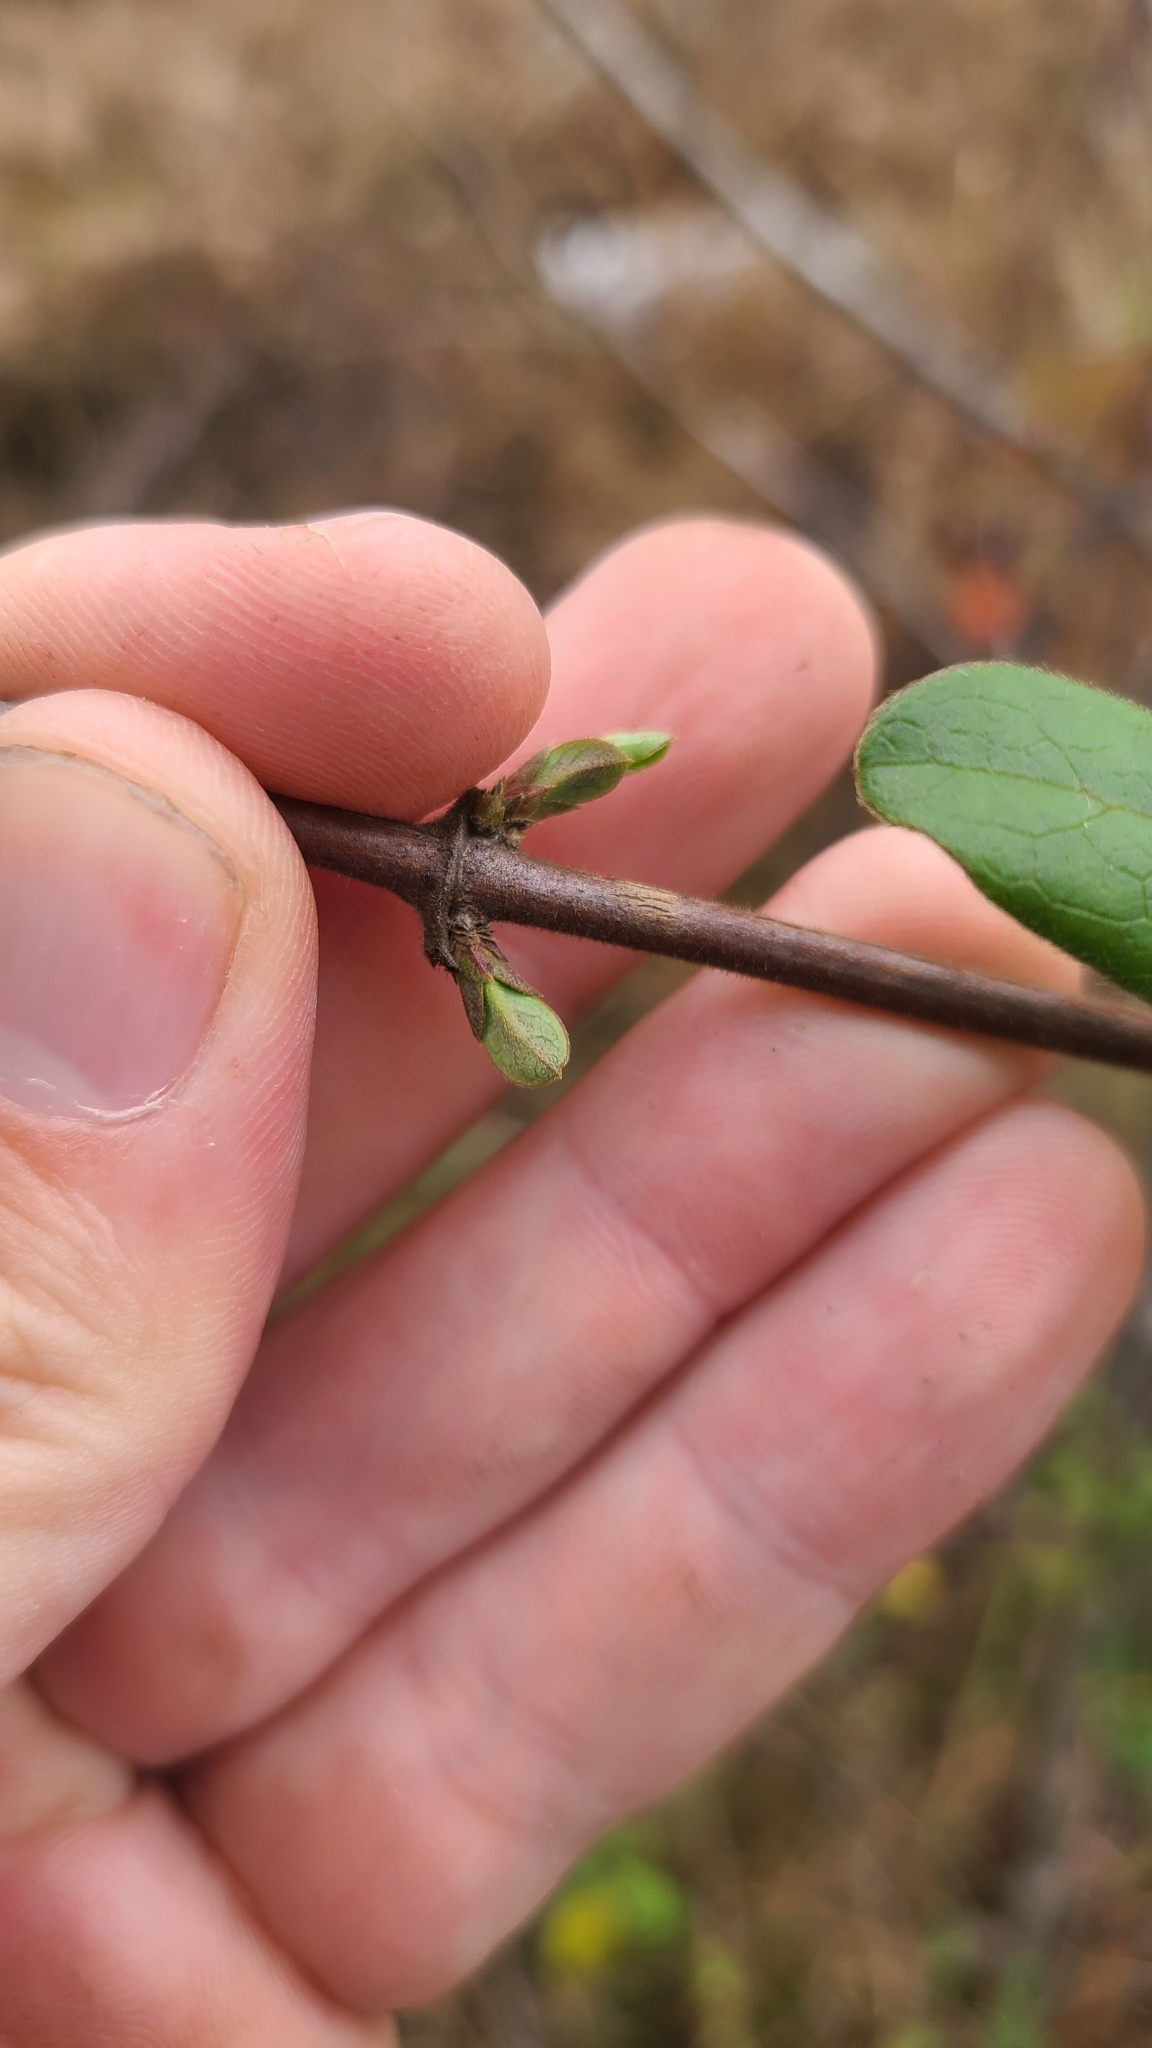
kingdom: Plantae
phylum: Tracheophyta
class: Magnoliopsida
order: Dipsacales
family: Caprifoliaceae
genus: Lonicera
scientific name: Lonicera japonica
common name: Japanese honeysuckle
